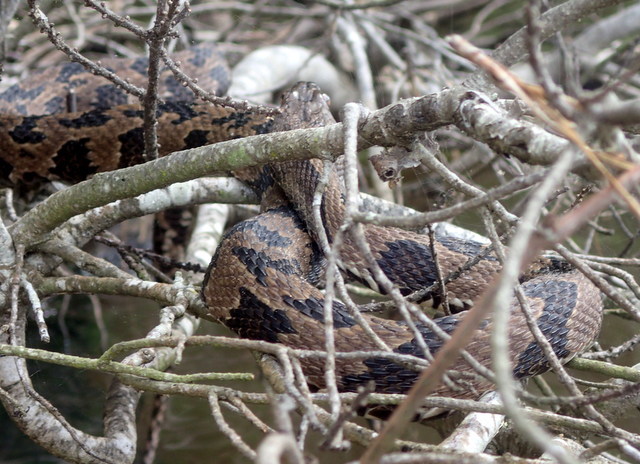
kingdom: Animalia
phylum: Chordata
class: Squamata
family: Colubridae
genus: Nerodia
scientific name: Nerodia taxispilota
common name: Brown water snake
